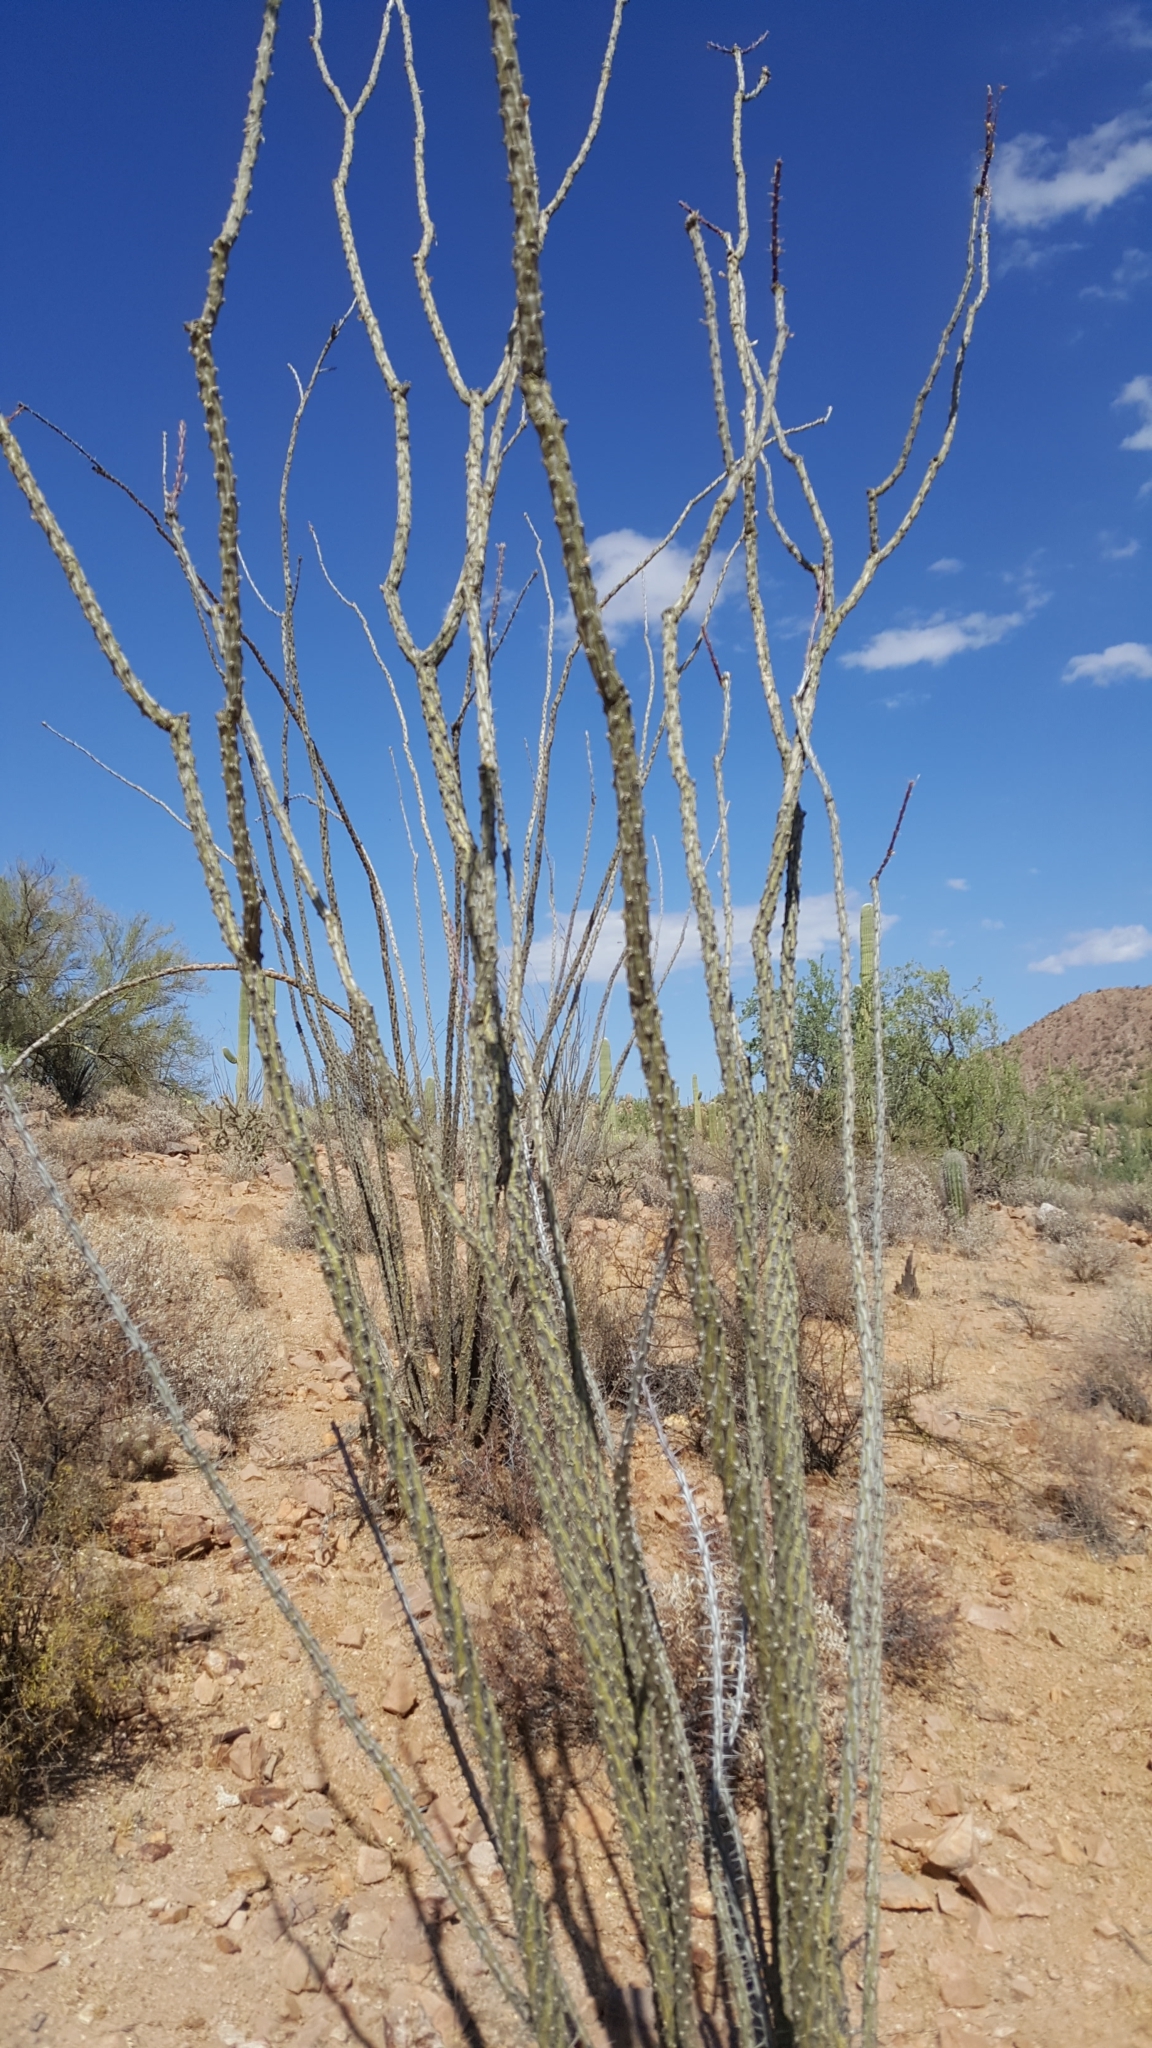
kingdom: Plantae
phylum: Tracheophyta
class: Magnoliopsida
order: Ericales
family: Fouquieriaceae
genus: Fouquieria
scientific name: Fouquieria splendens
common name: Vine-cactus
